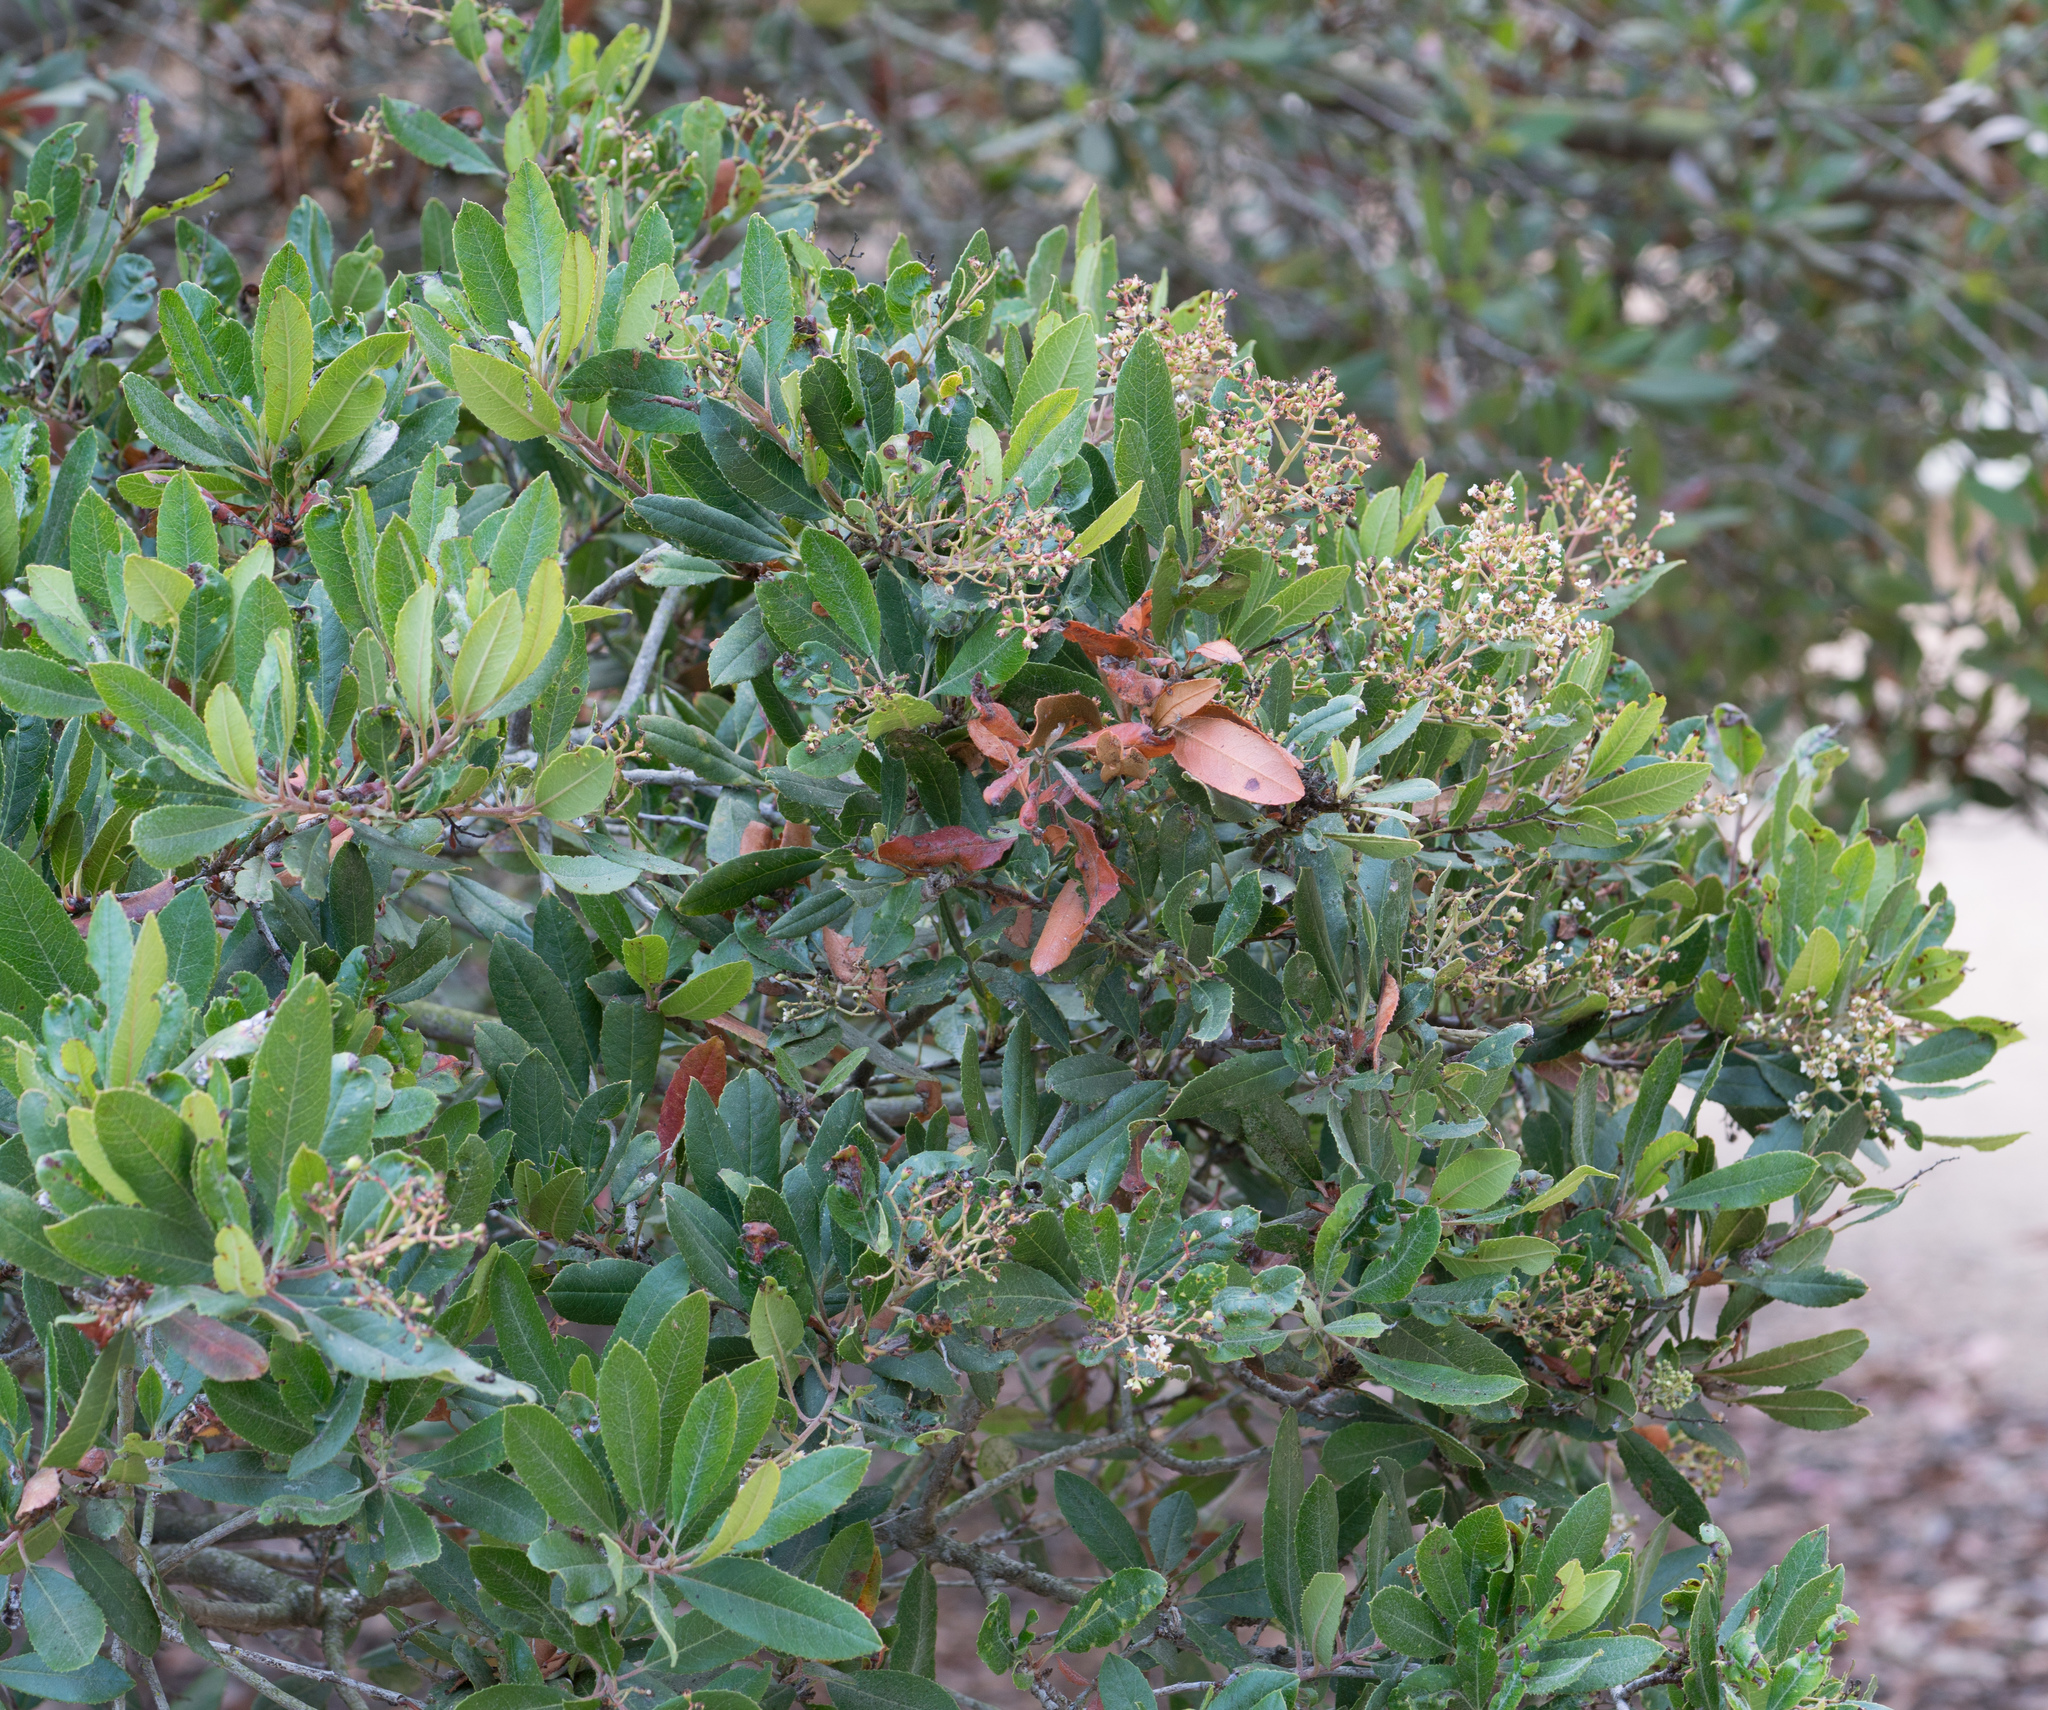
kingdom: Plantae
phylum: Tracheophyta
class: Magnoliopsida
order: Rosales
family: Rosaceae
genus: Heteromeles
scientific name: Heteromeles arbutifolia
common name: California-holly
